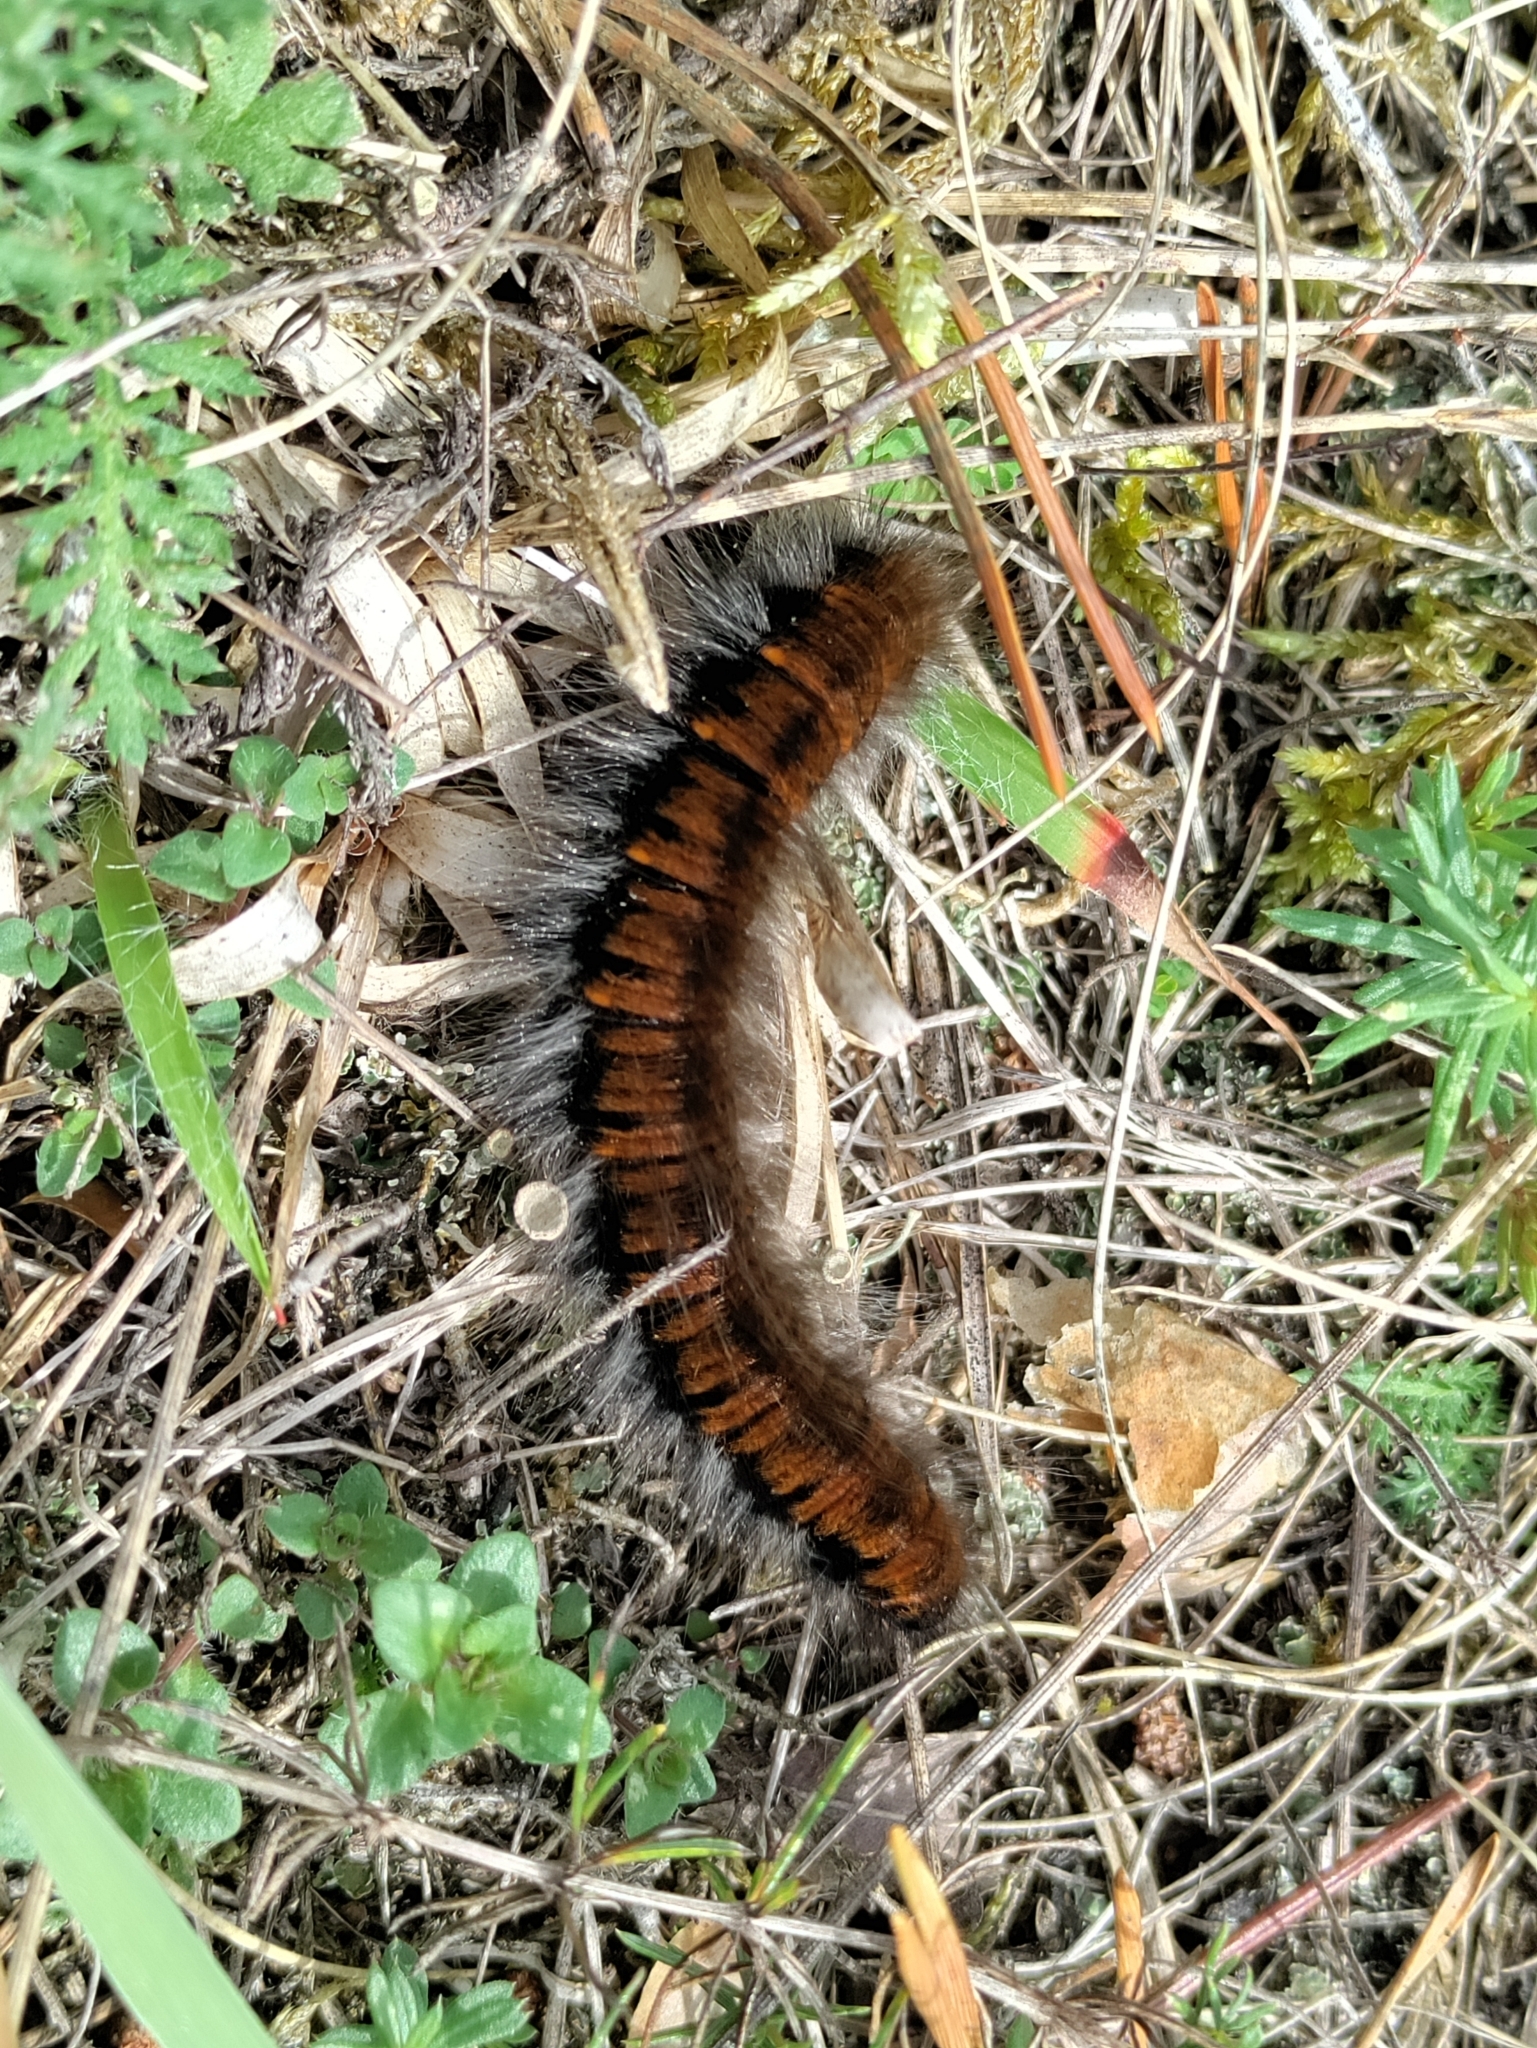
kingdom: Animalia
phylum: Arthropoda
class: Insecta
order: Lepidoptera
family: Lasiocampidae
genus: Macrothylacia
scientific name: Macrothylacia rubi
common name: Fox moth
